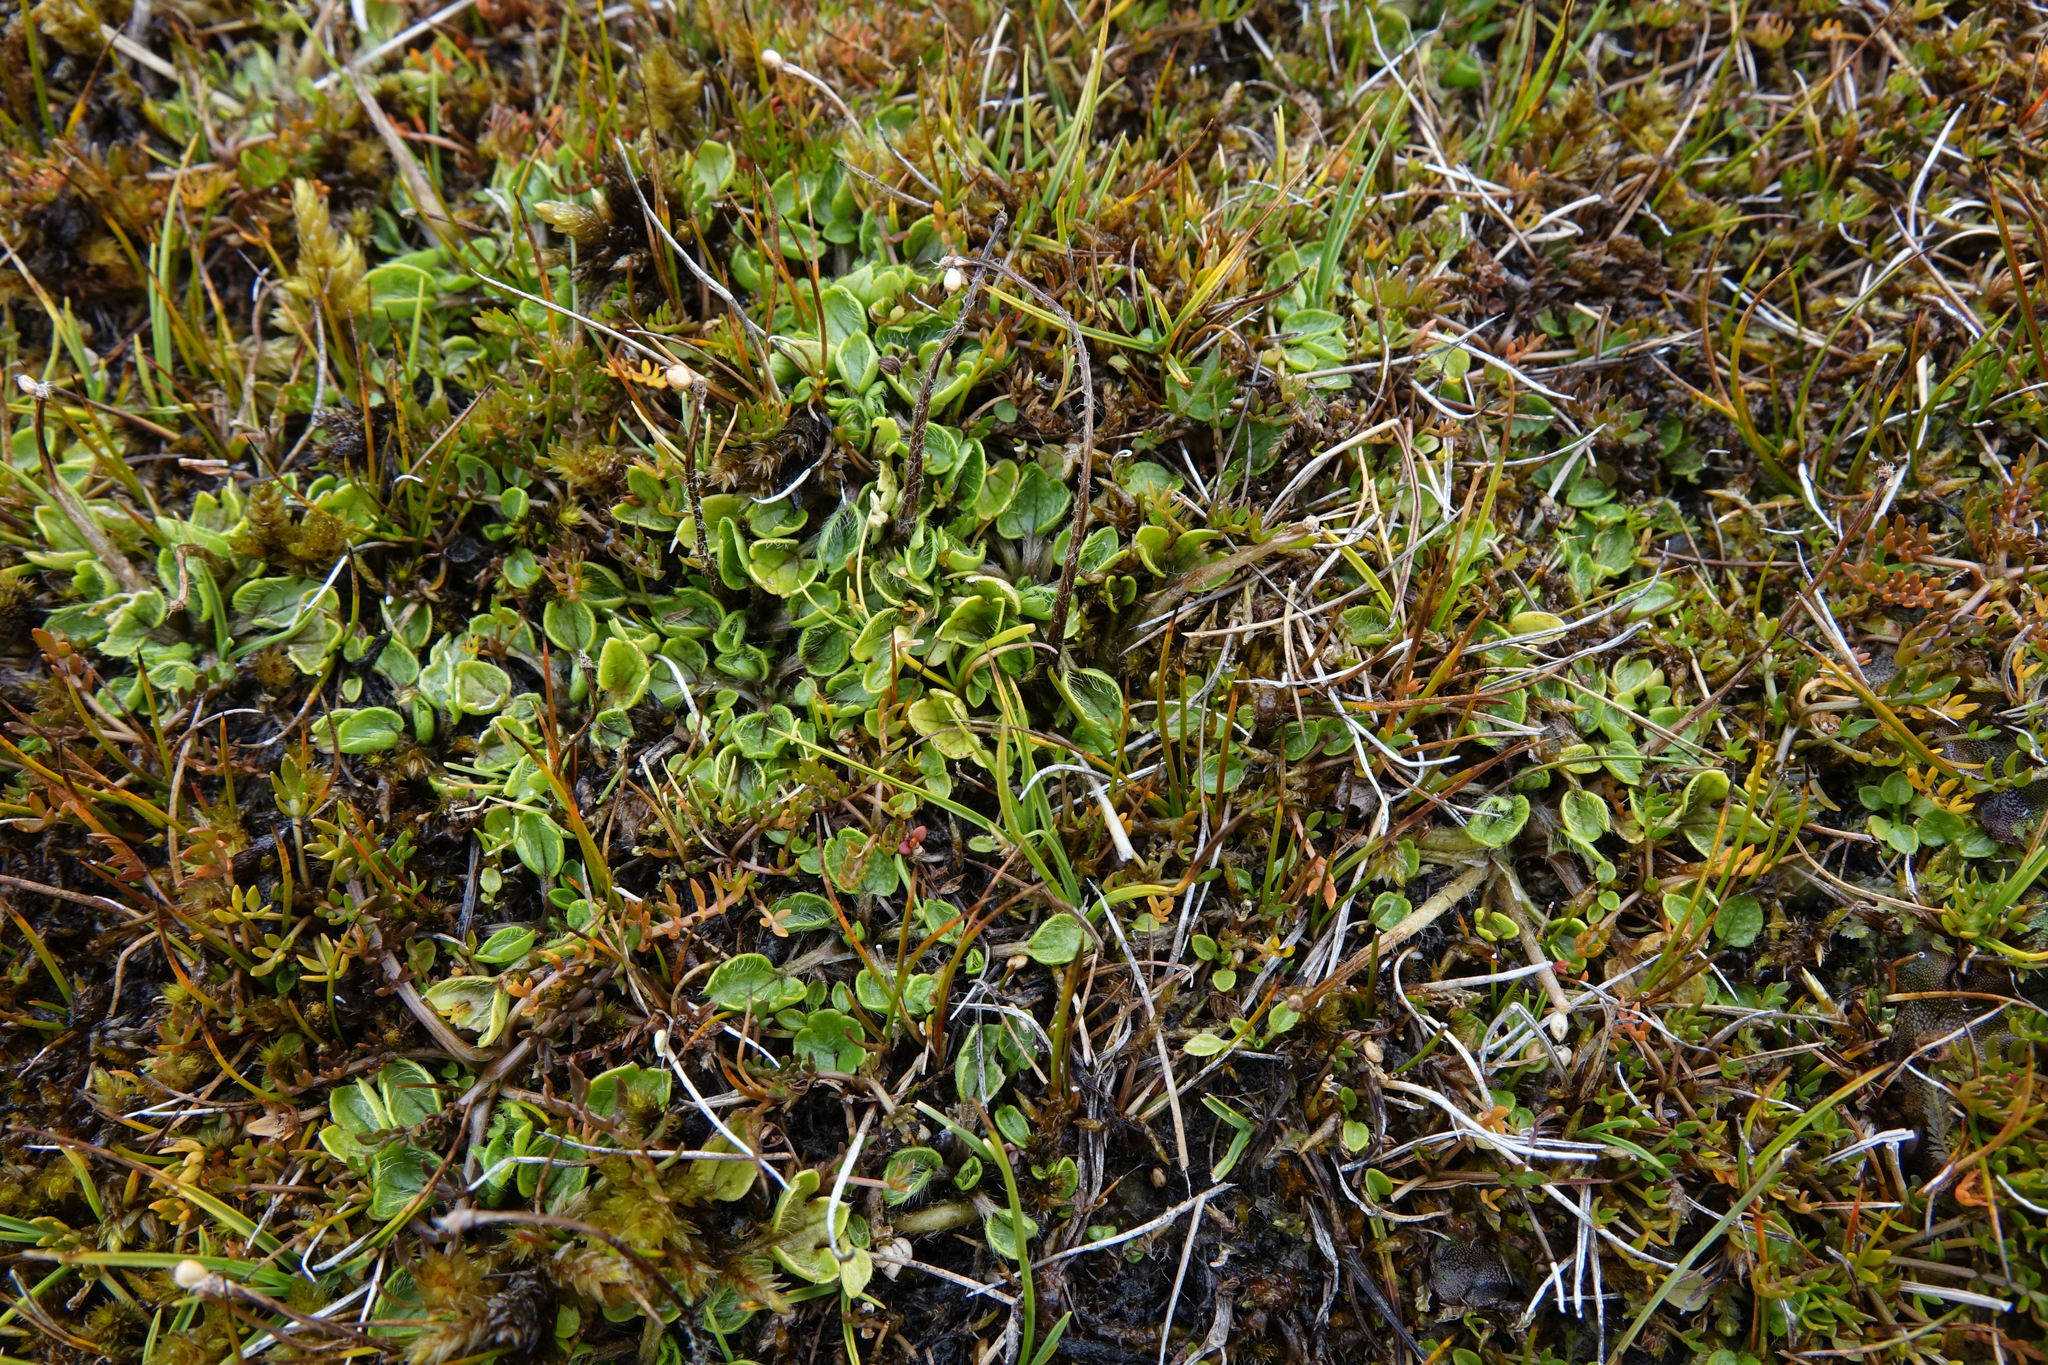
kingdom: Plantae
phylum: Tracheophyta
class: Magnoliopsida
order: Ranunculales
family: Ranunculaceae
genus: Ranunculus
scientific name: Ranunculus maculatus
